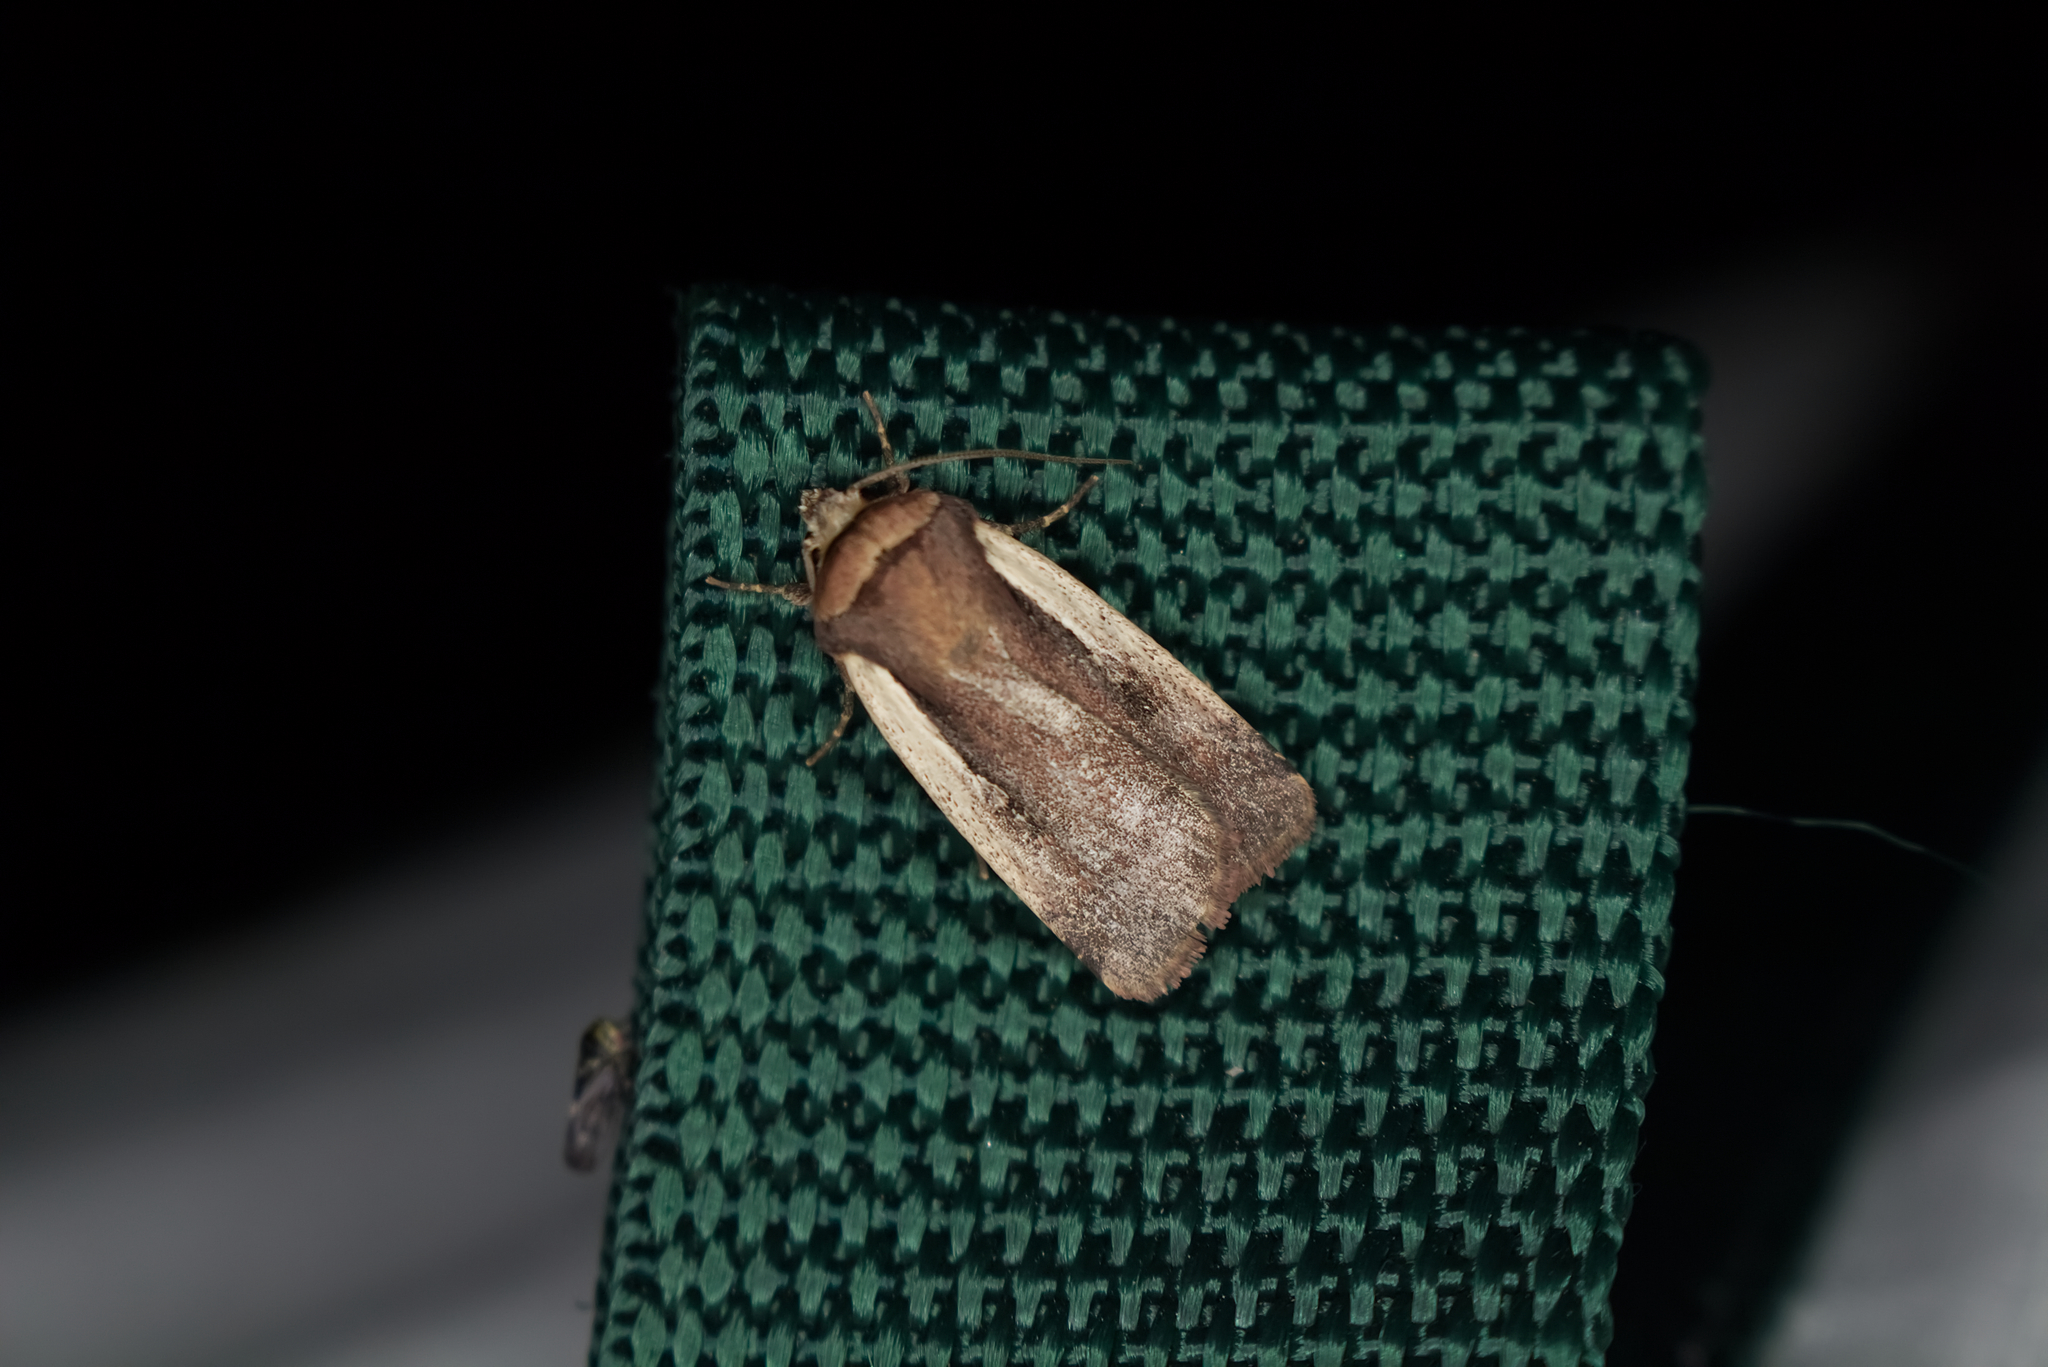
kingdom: Animalia
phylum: Arthropoda
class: Insecta
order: Lepidoptera
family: Noctuidae
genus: Ochropleura
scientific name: Ochropleura plecta
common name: Flame shoulder
